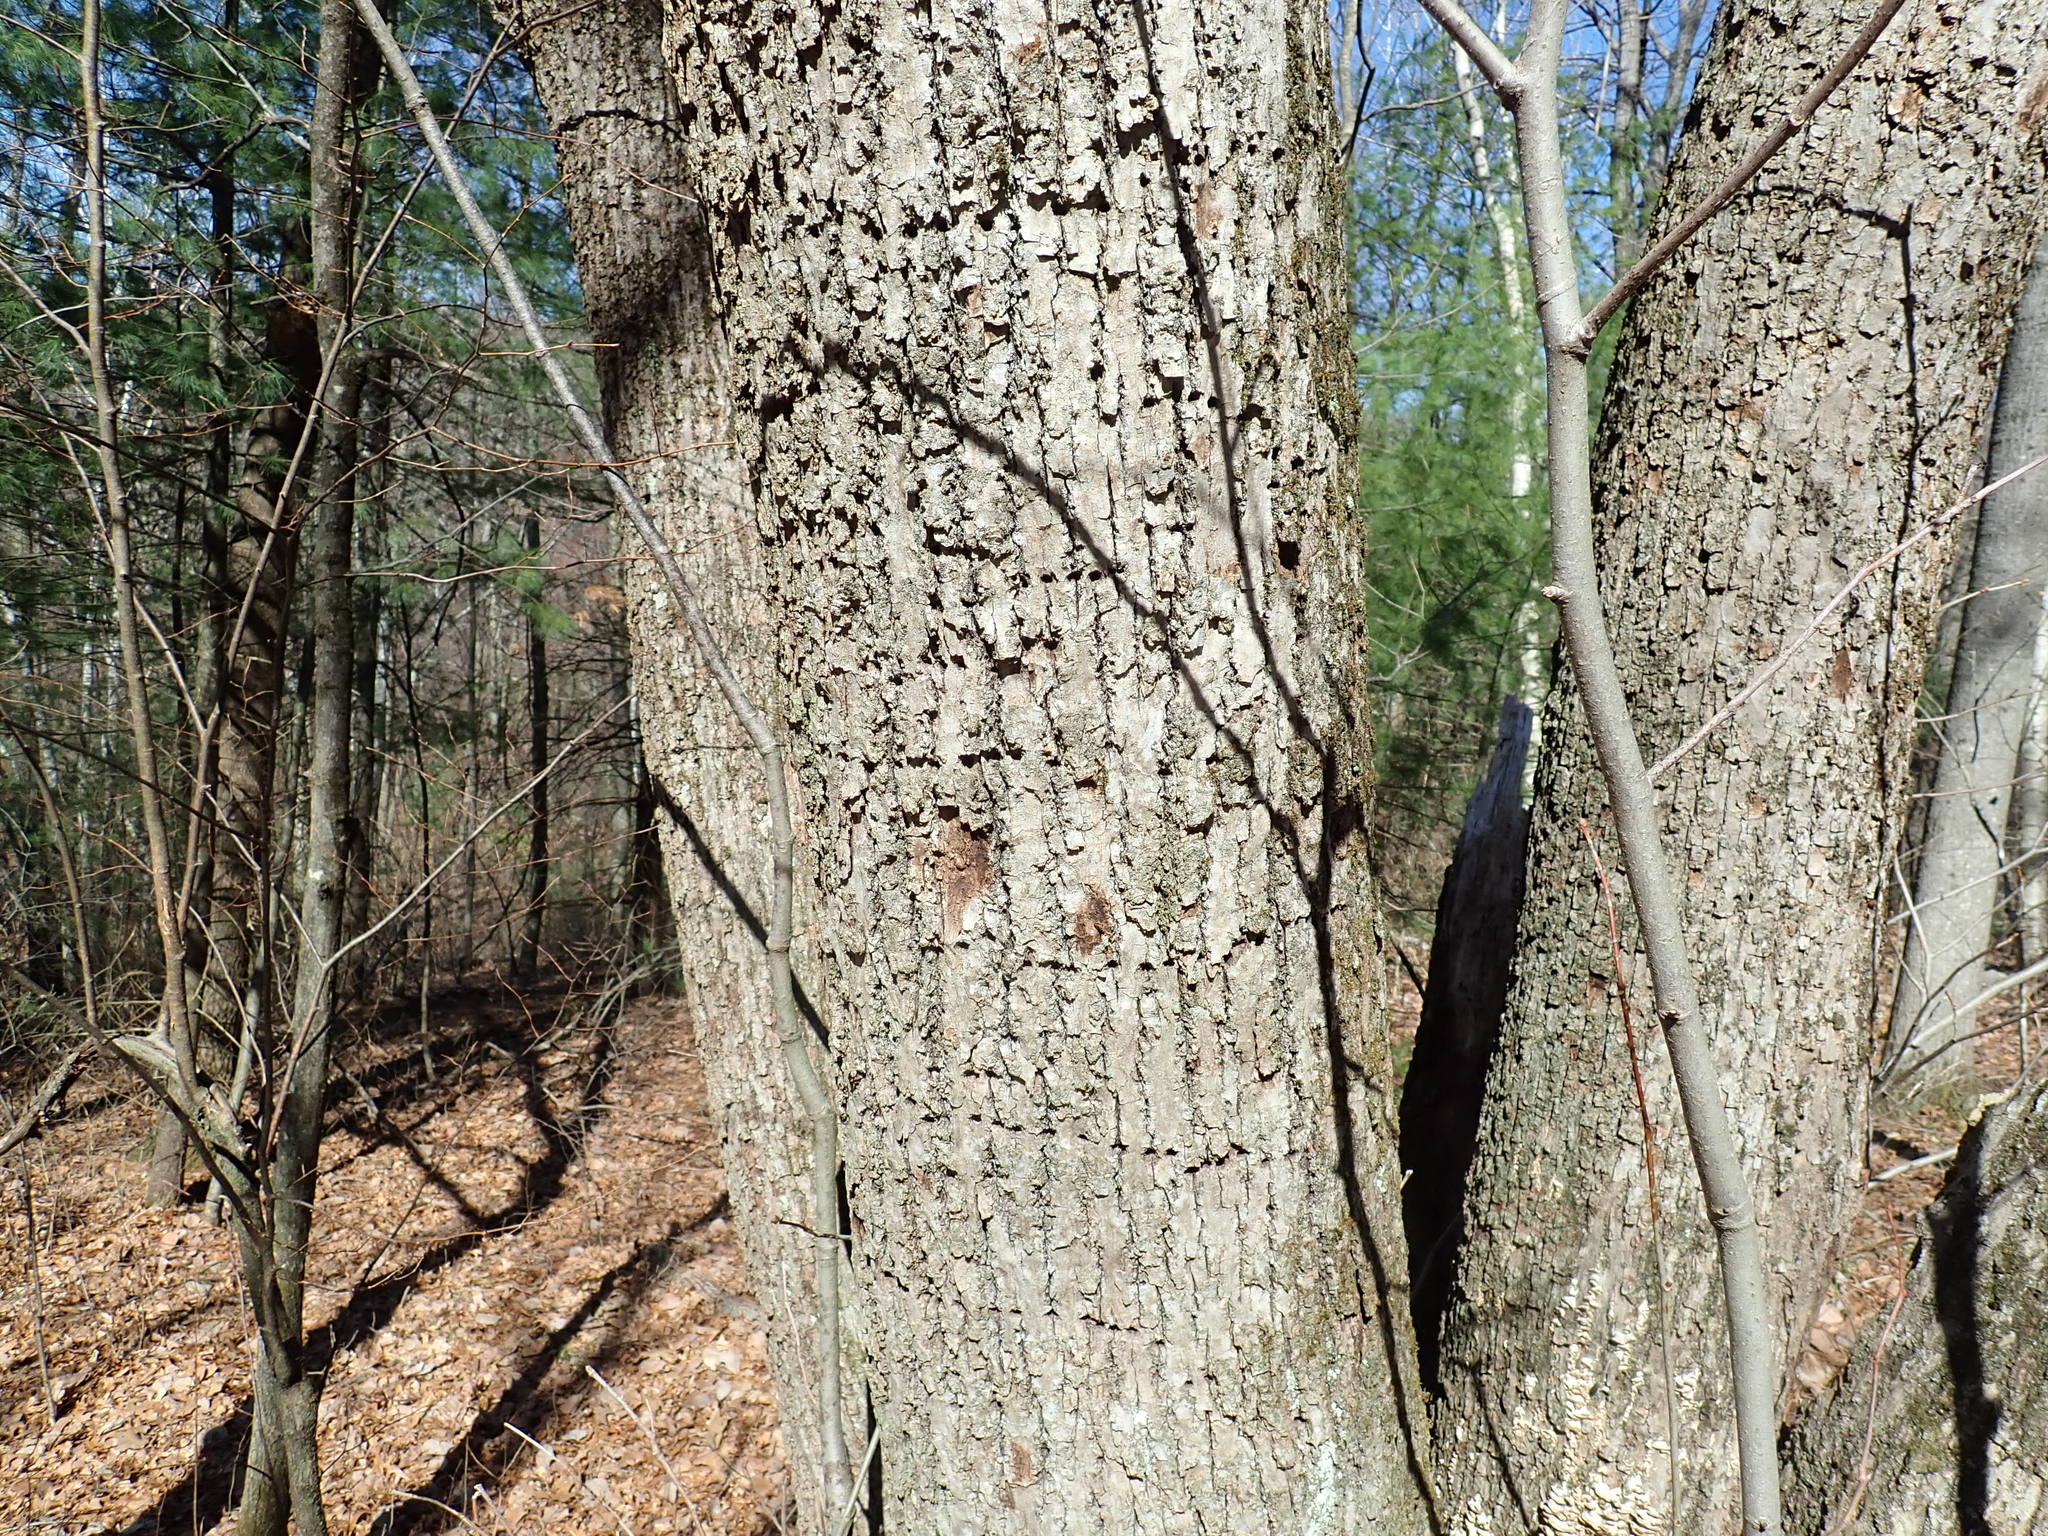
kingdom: Animalia
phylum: Chordata
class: Aves
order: Piciformes
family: Picidae
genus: Sphyrapicus
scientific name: Sphyrapicus varius
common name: Yellow-bellied sapsucker
